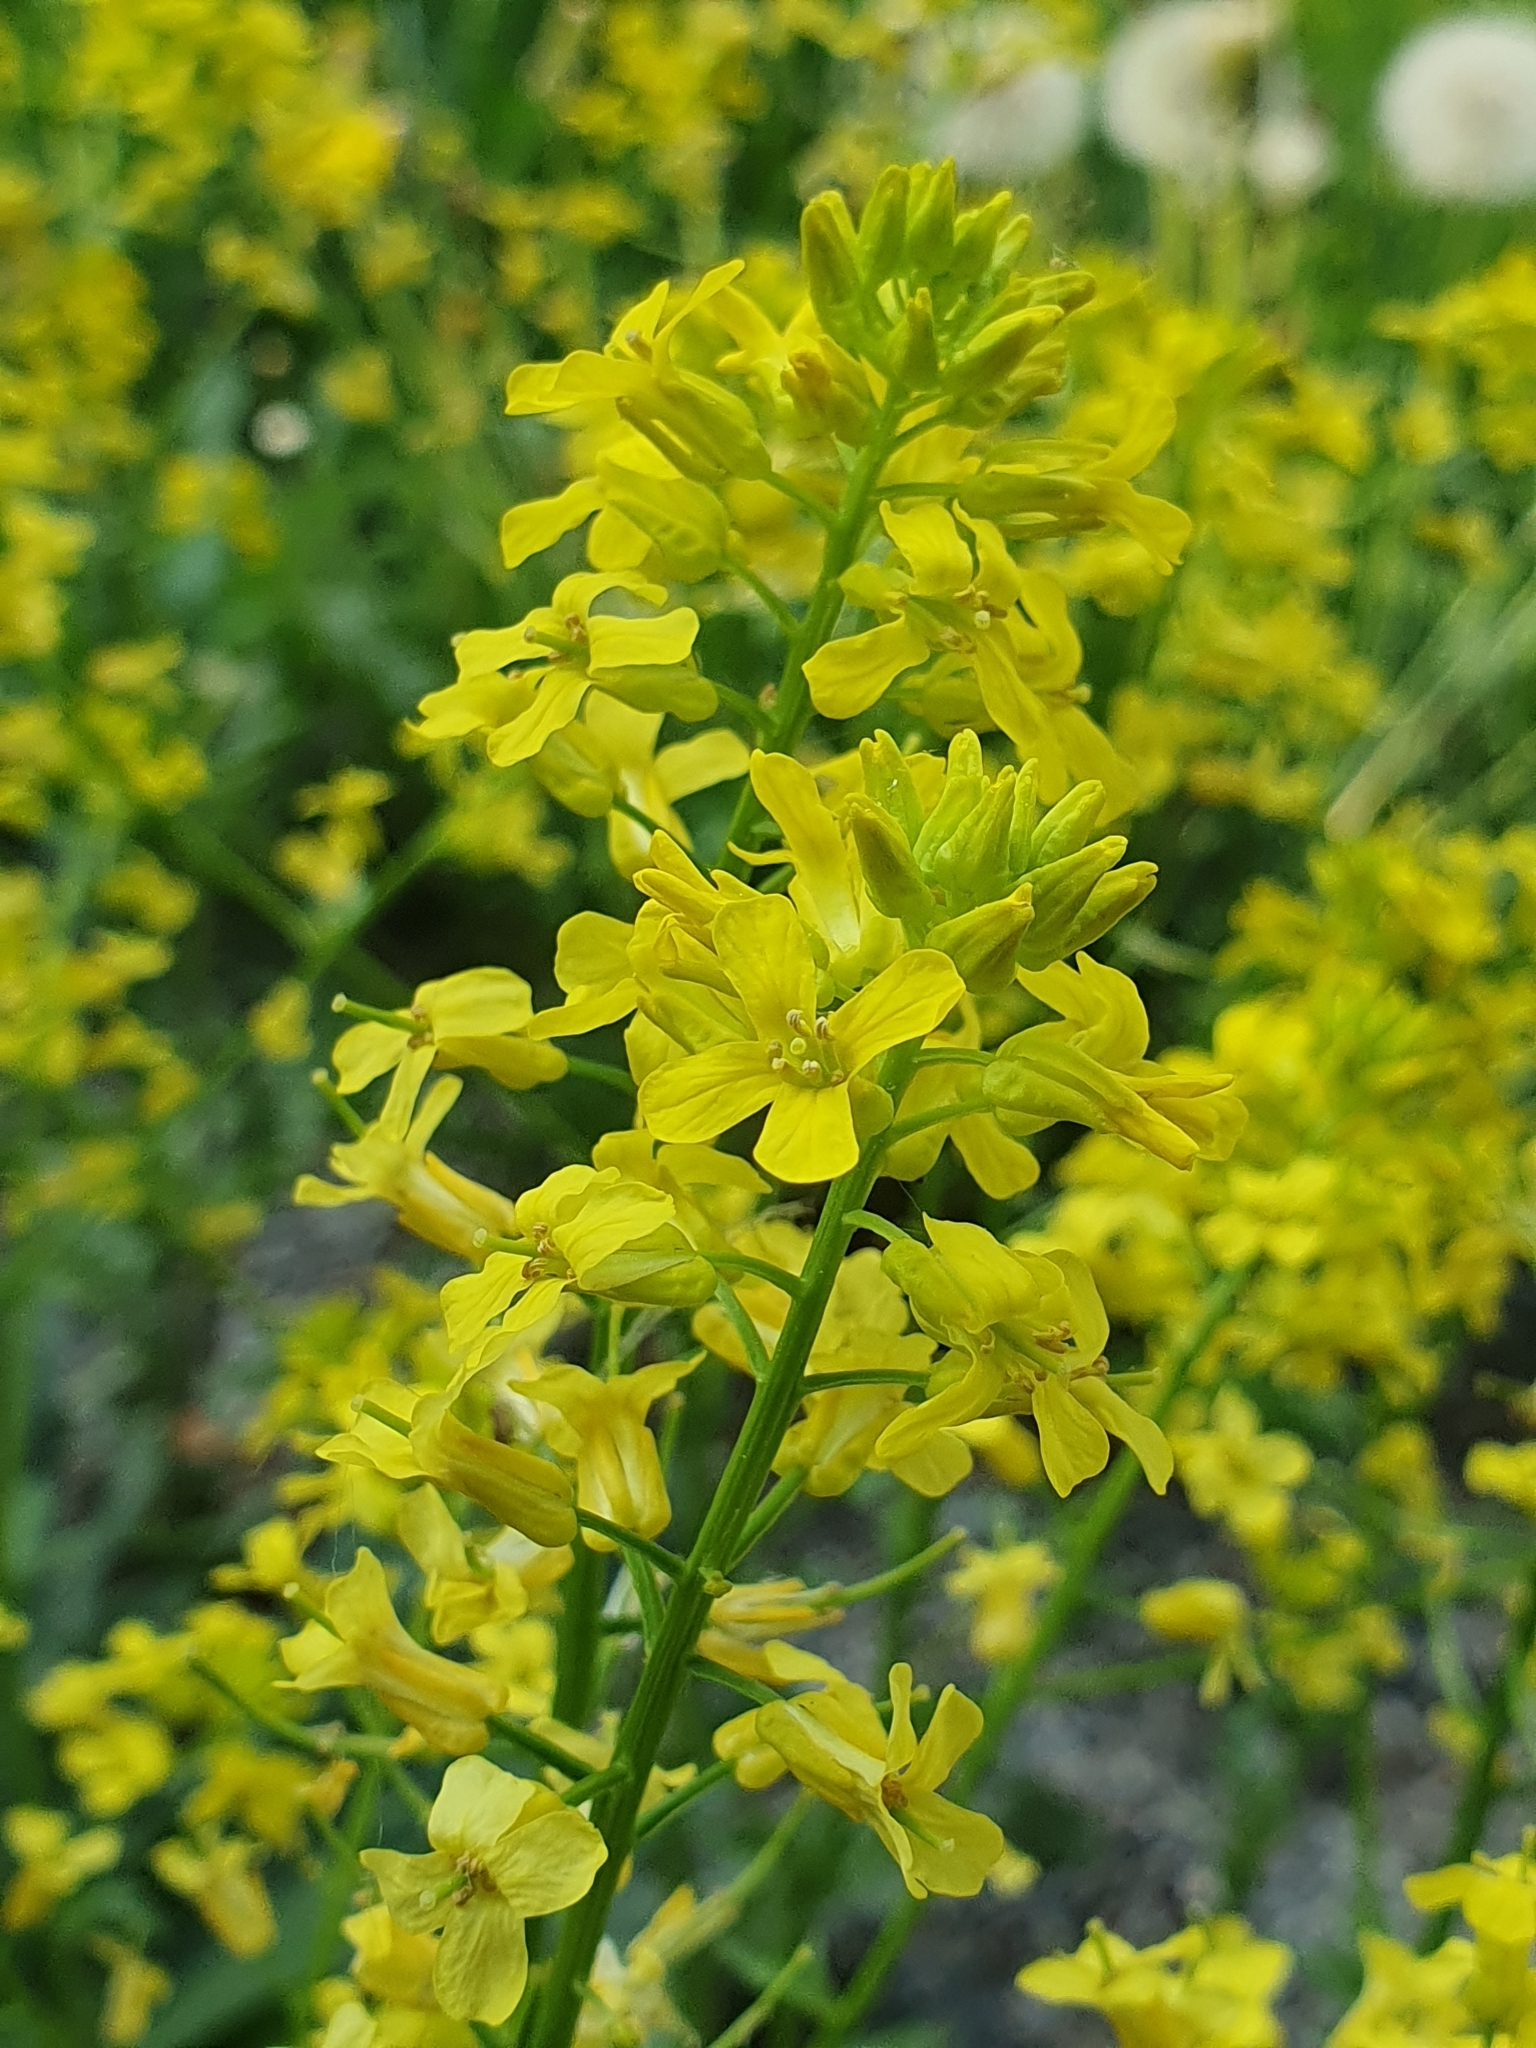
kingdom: Plantae
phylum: Tracheophyta
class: Magnoliopsida
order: Brassicales
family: Brassicaceae
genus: Barbarea
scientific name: Barbarea vulgaris
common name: Cressy-greens
